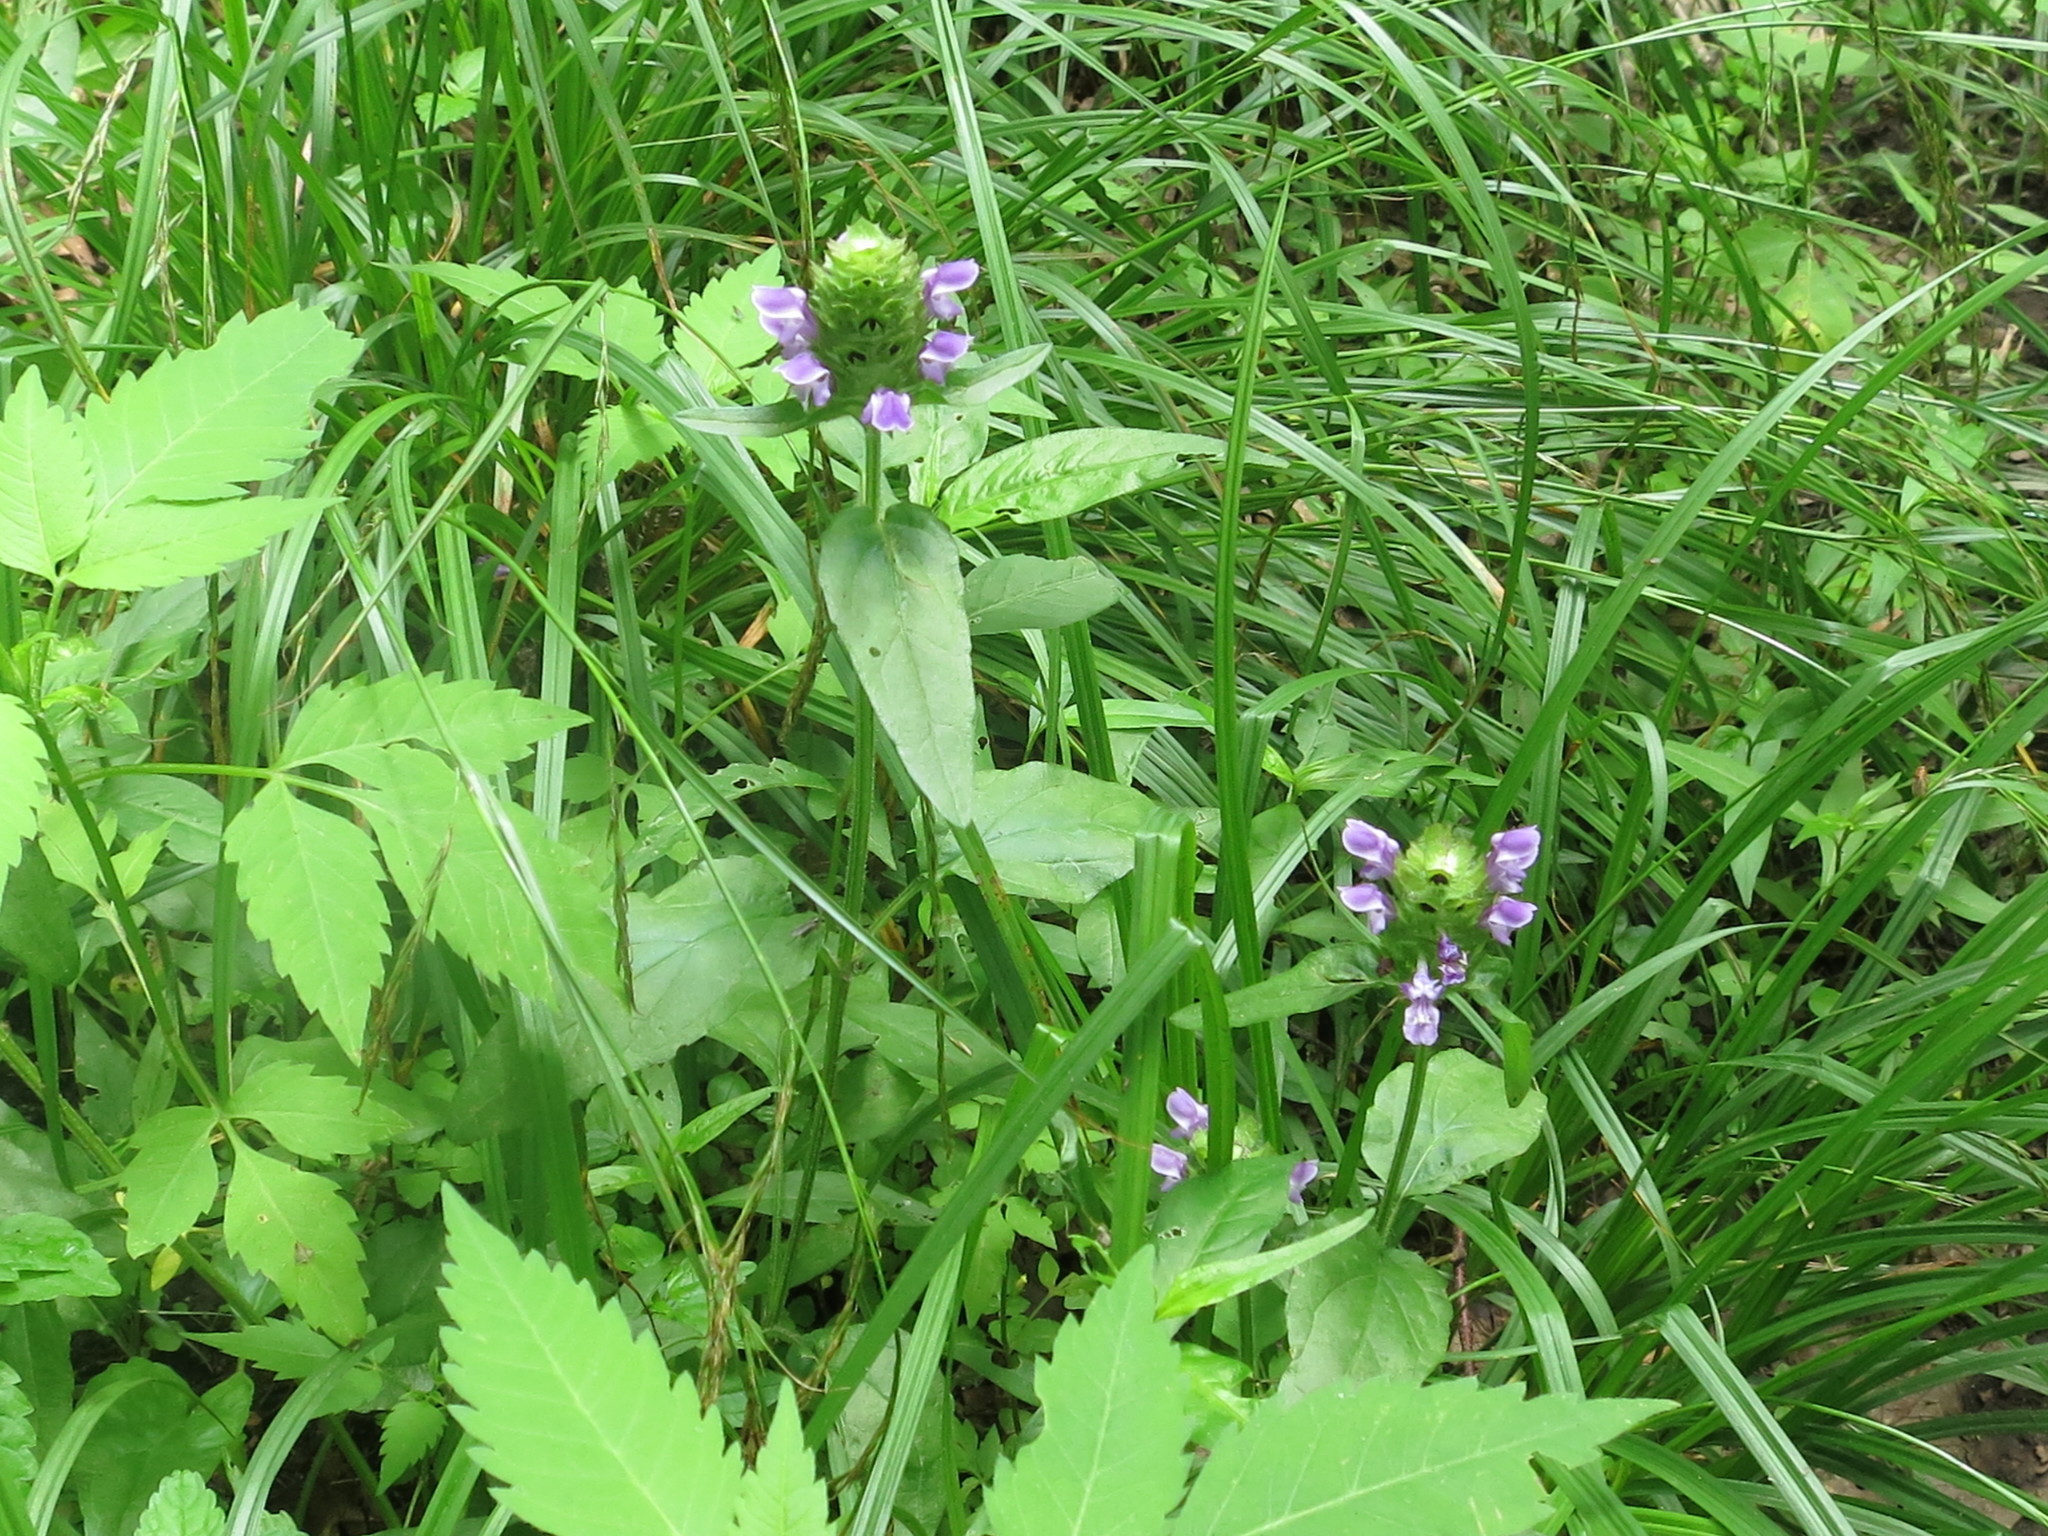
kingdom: Plantae
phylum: Tracheophyta
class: Magnoliopsida
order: Lamiales
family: Lamiaceae
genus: Prunella
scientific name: Prunella vulgaris
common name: Heal-all
